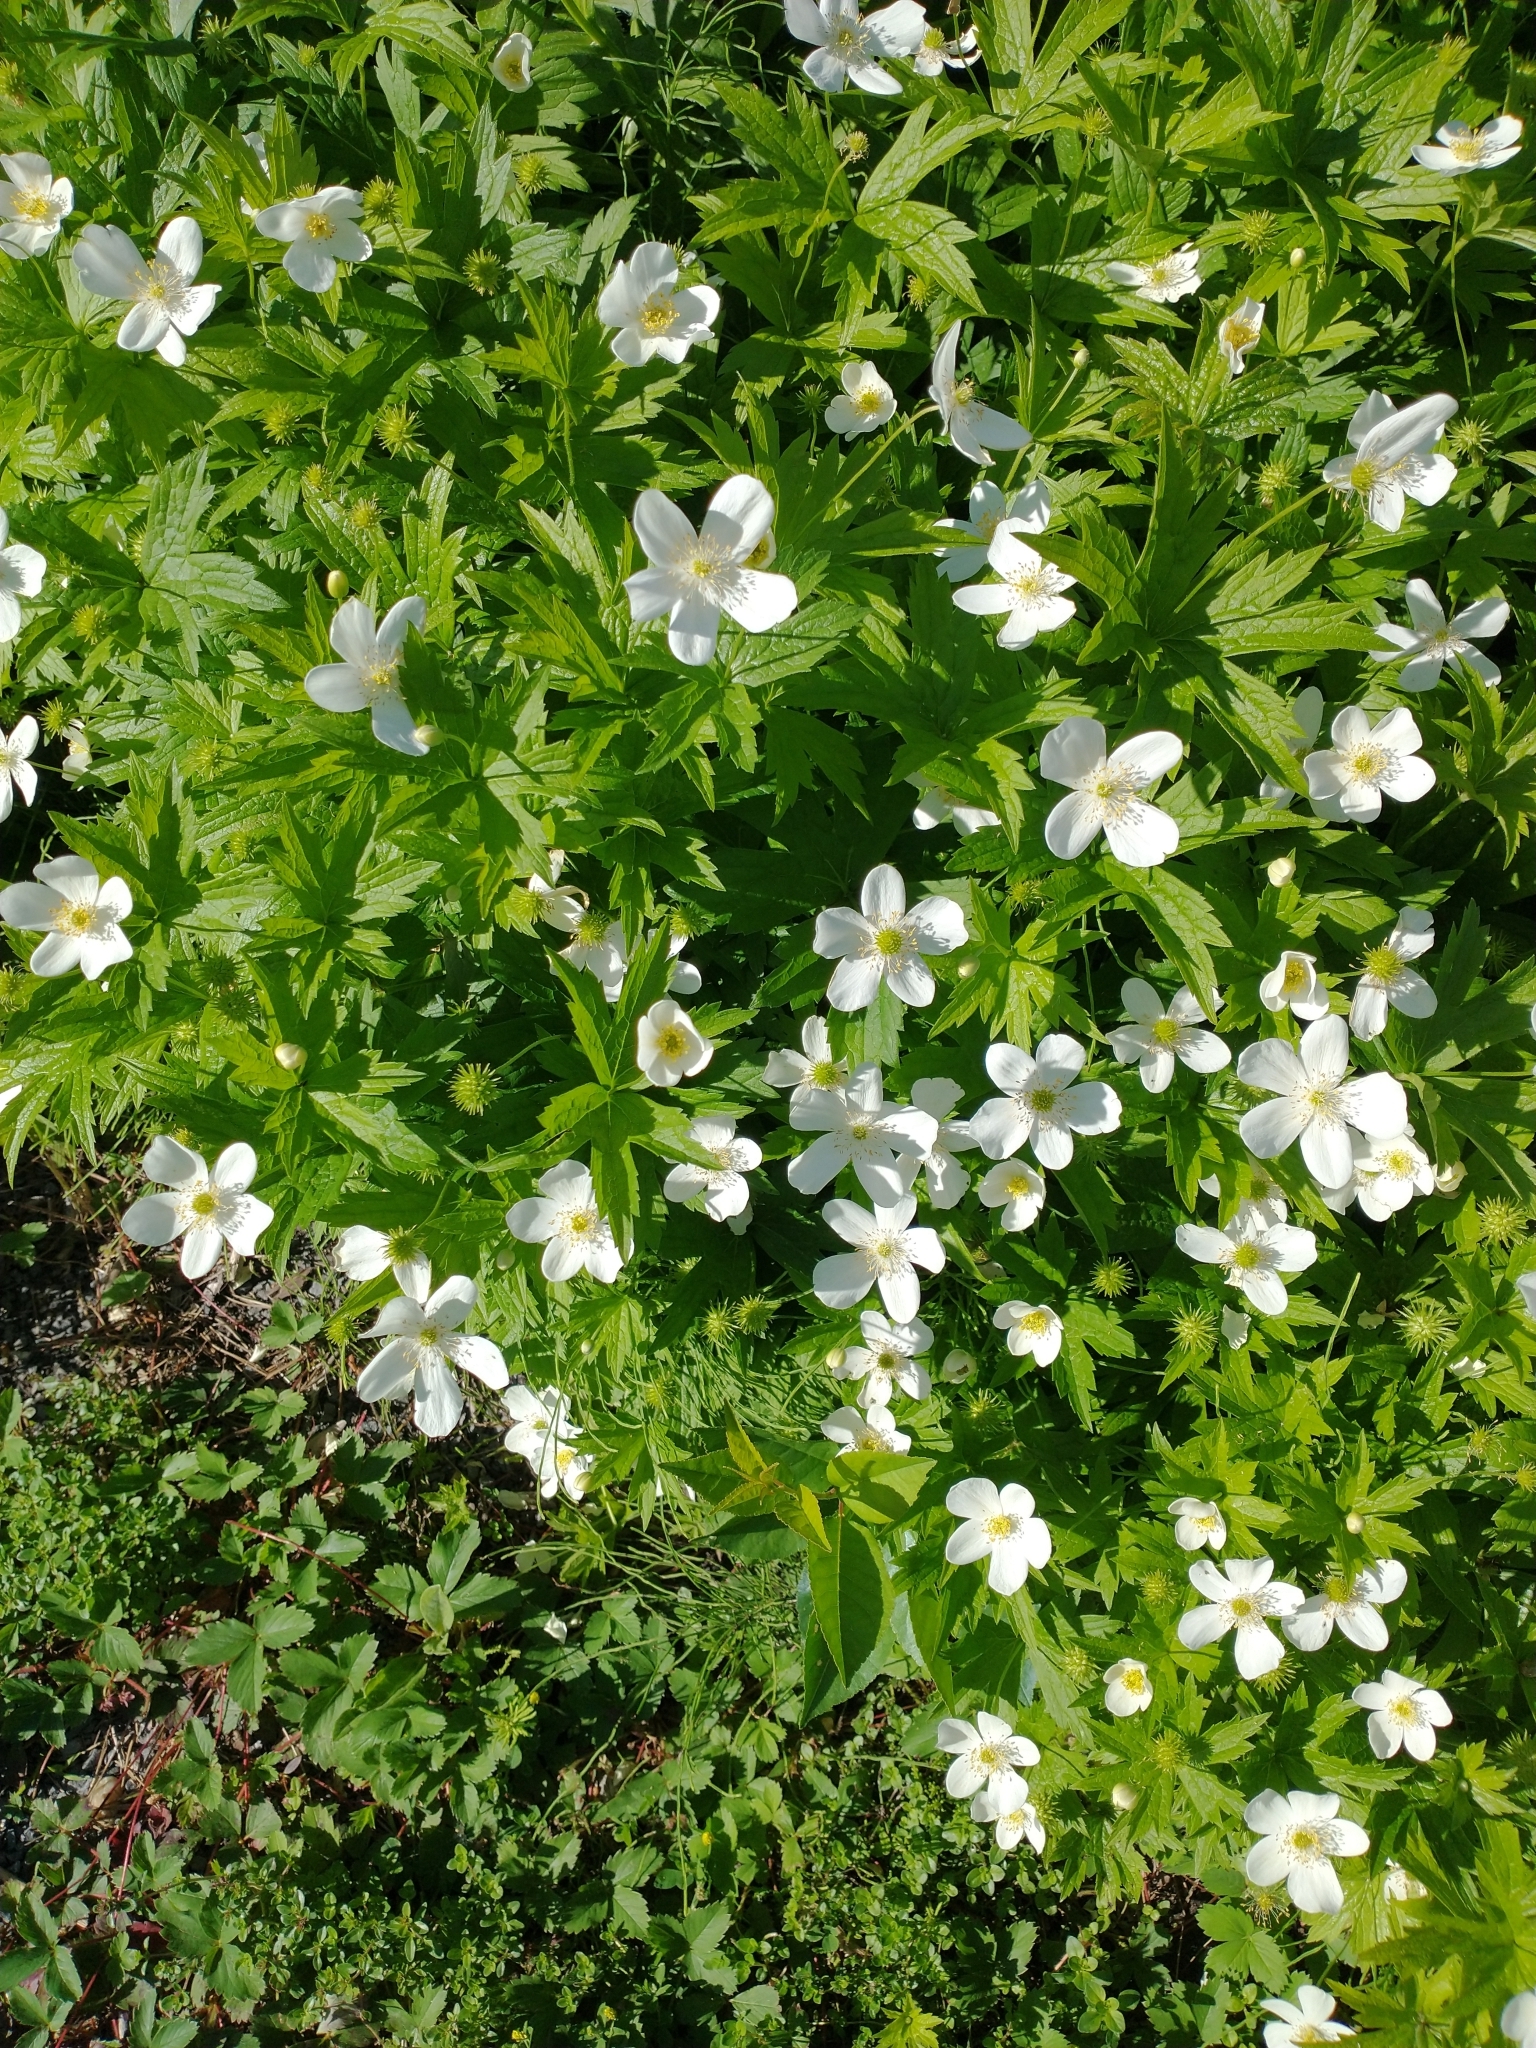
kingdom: Plantae
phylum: Tracheophyta
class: Magnoliopsida
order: Ranunculales
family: Ranunculaceae
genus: Anemonastrum
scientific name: Anemonastrum canadense
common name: Canada anemone
